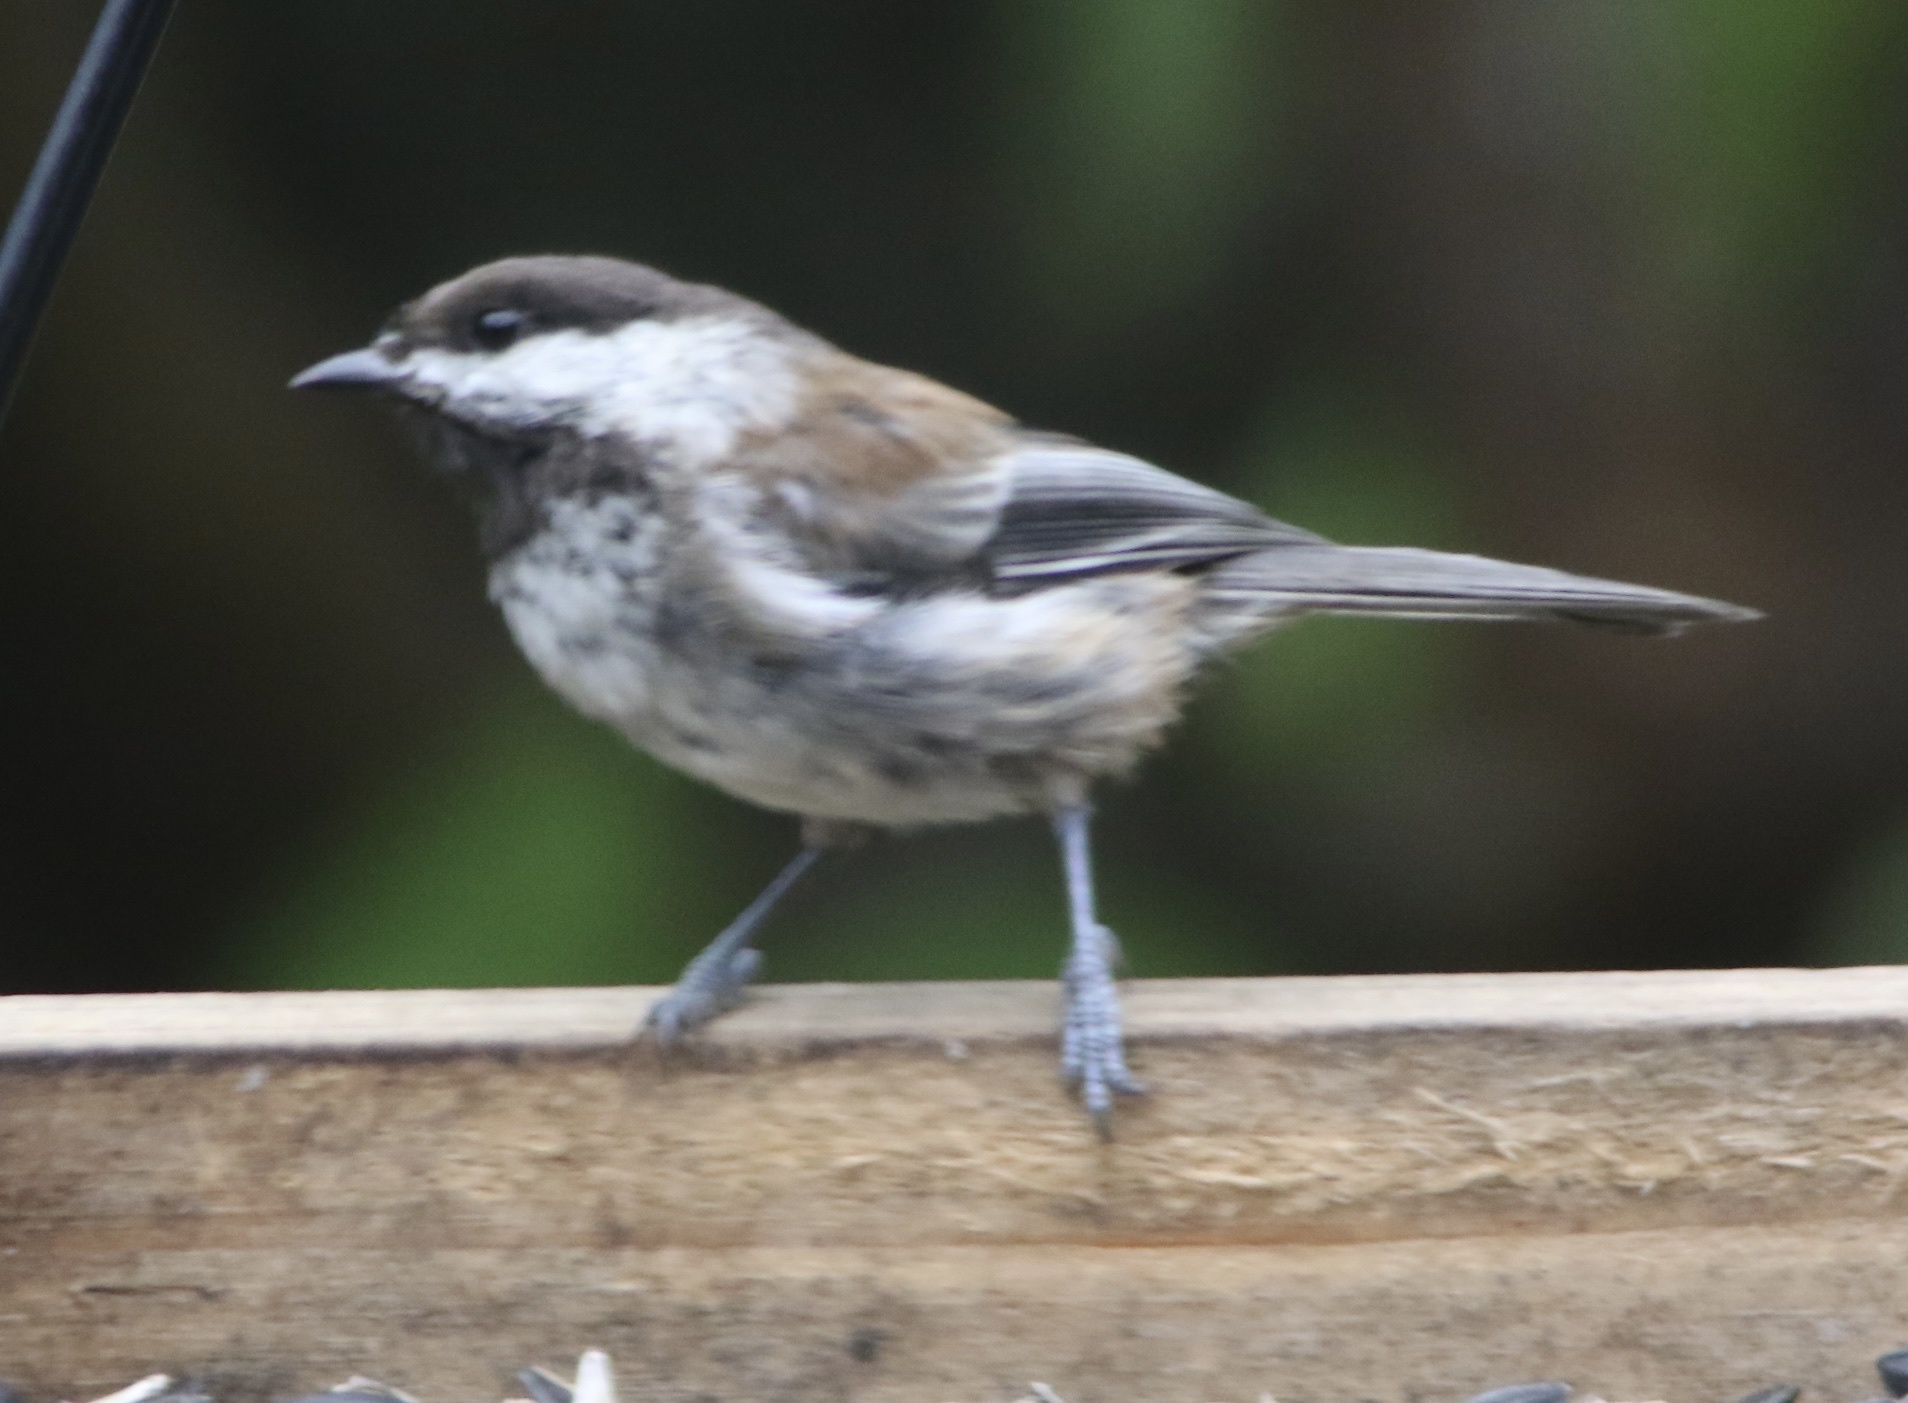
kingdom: Animalia
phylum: Chordata
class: Aves
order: Passeriformes
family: Paridae
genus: Poecile
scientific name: Poecile rufescens
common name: Chestnut-backed chickadee
